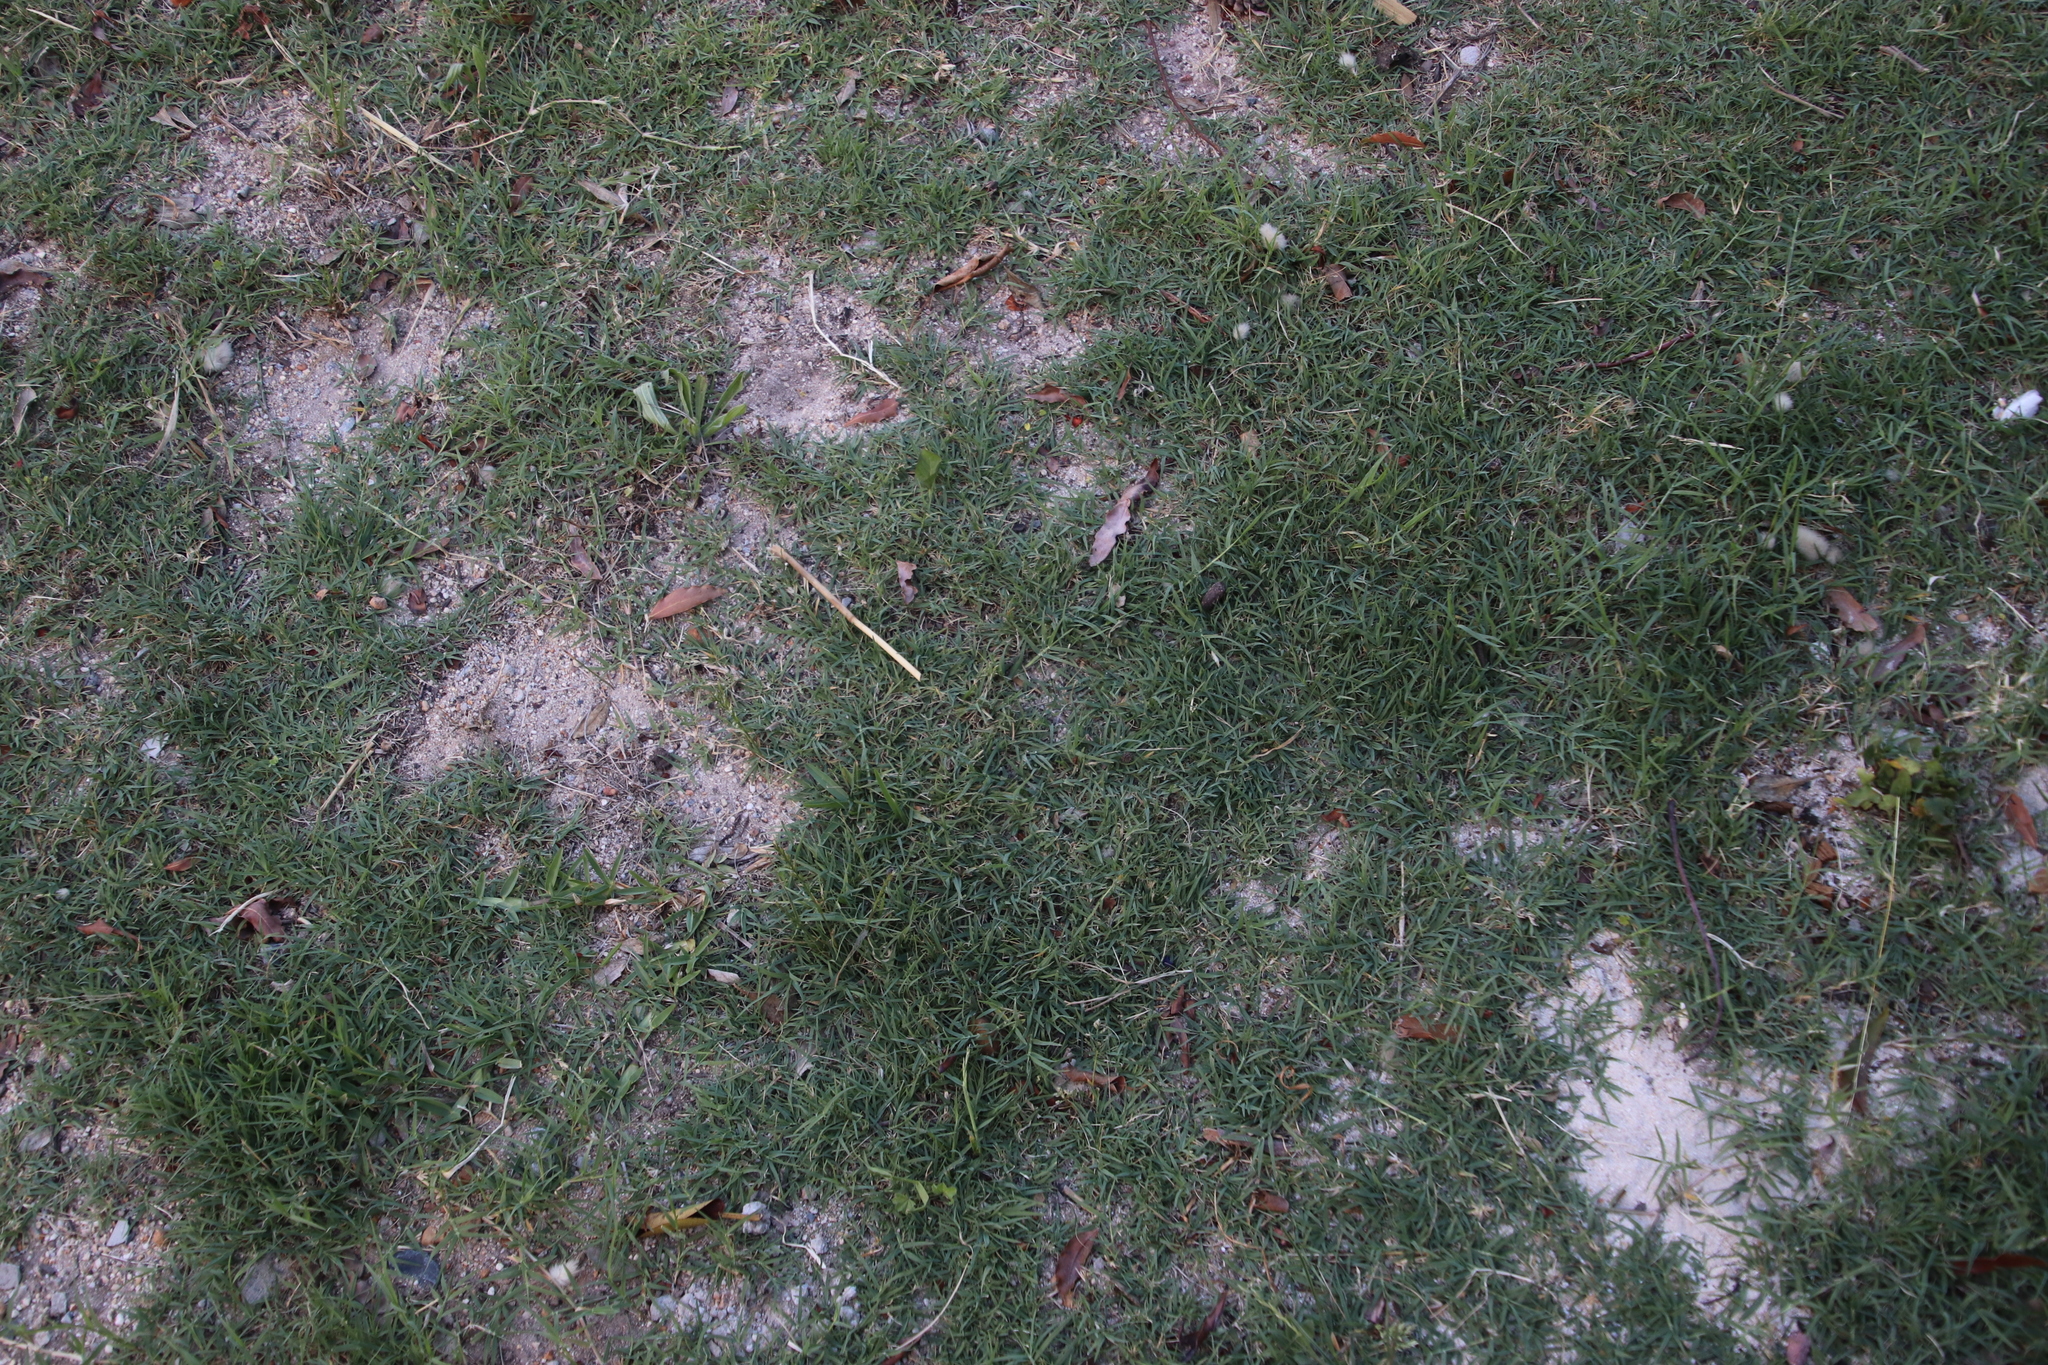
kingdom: Plantae
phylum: Tracheophyta
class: Liliopsida
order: Poales
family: Poaceae
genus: Cynodon
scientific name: Cynodon dactylon
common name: Bermuda grass
